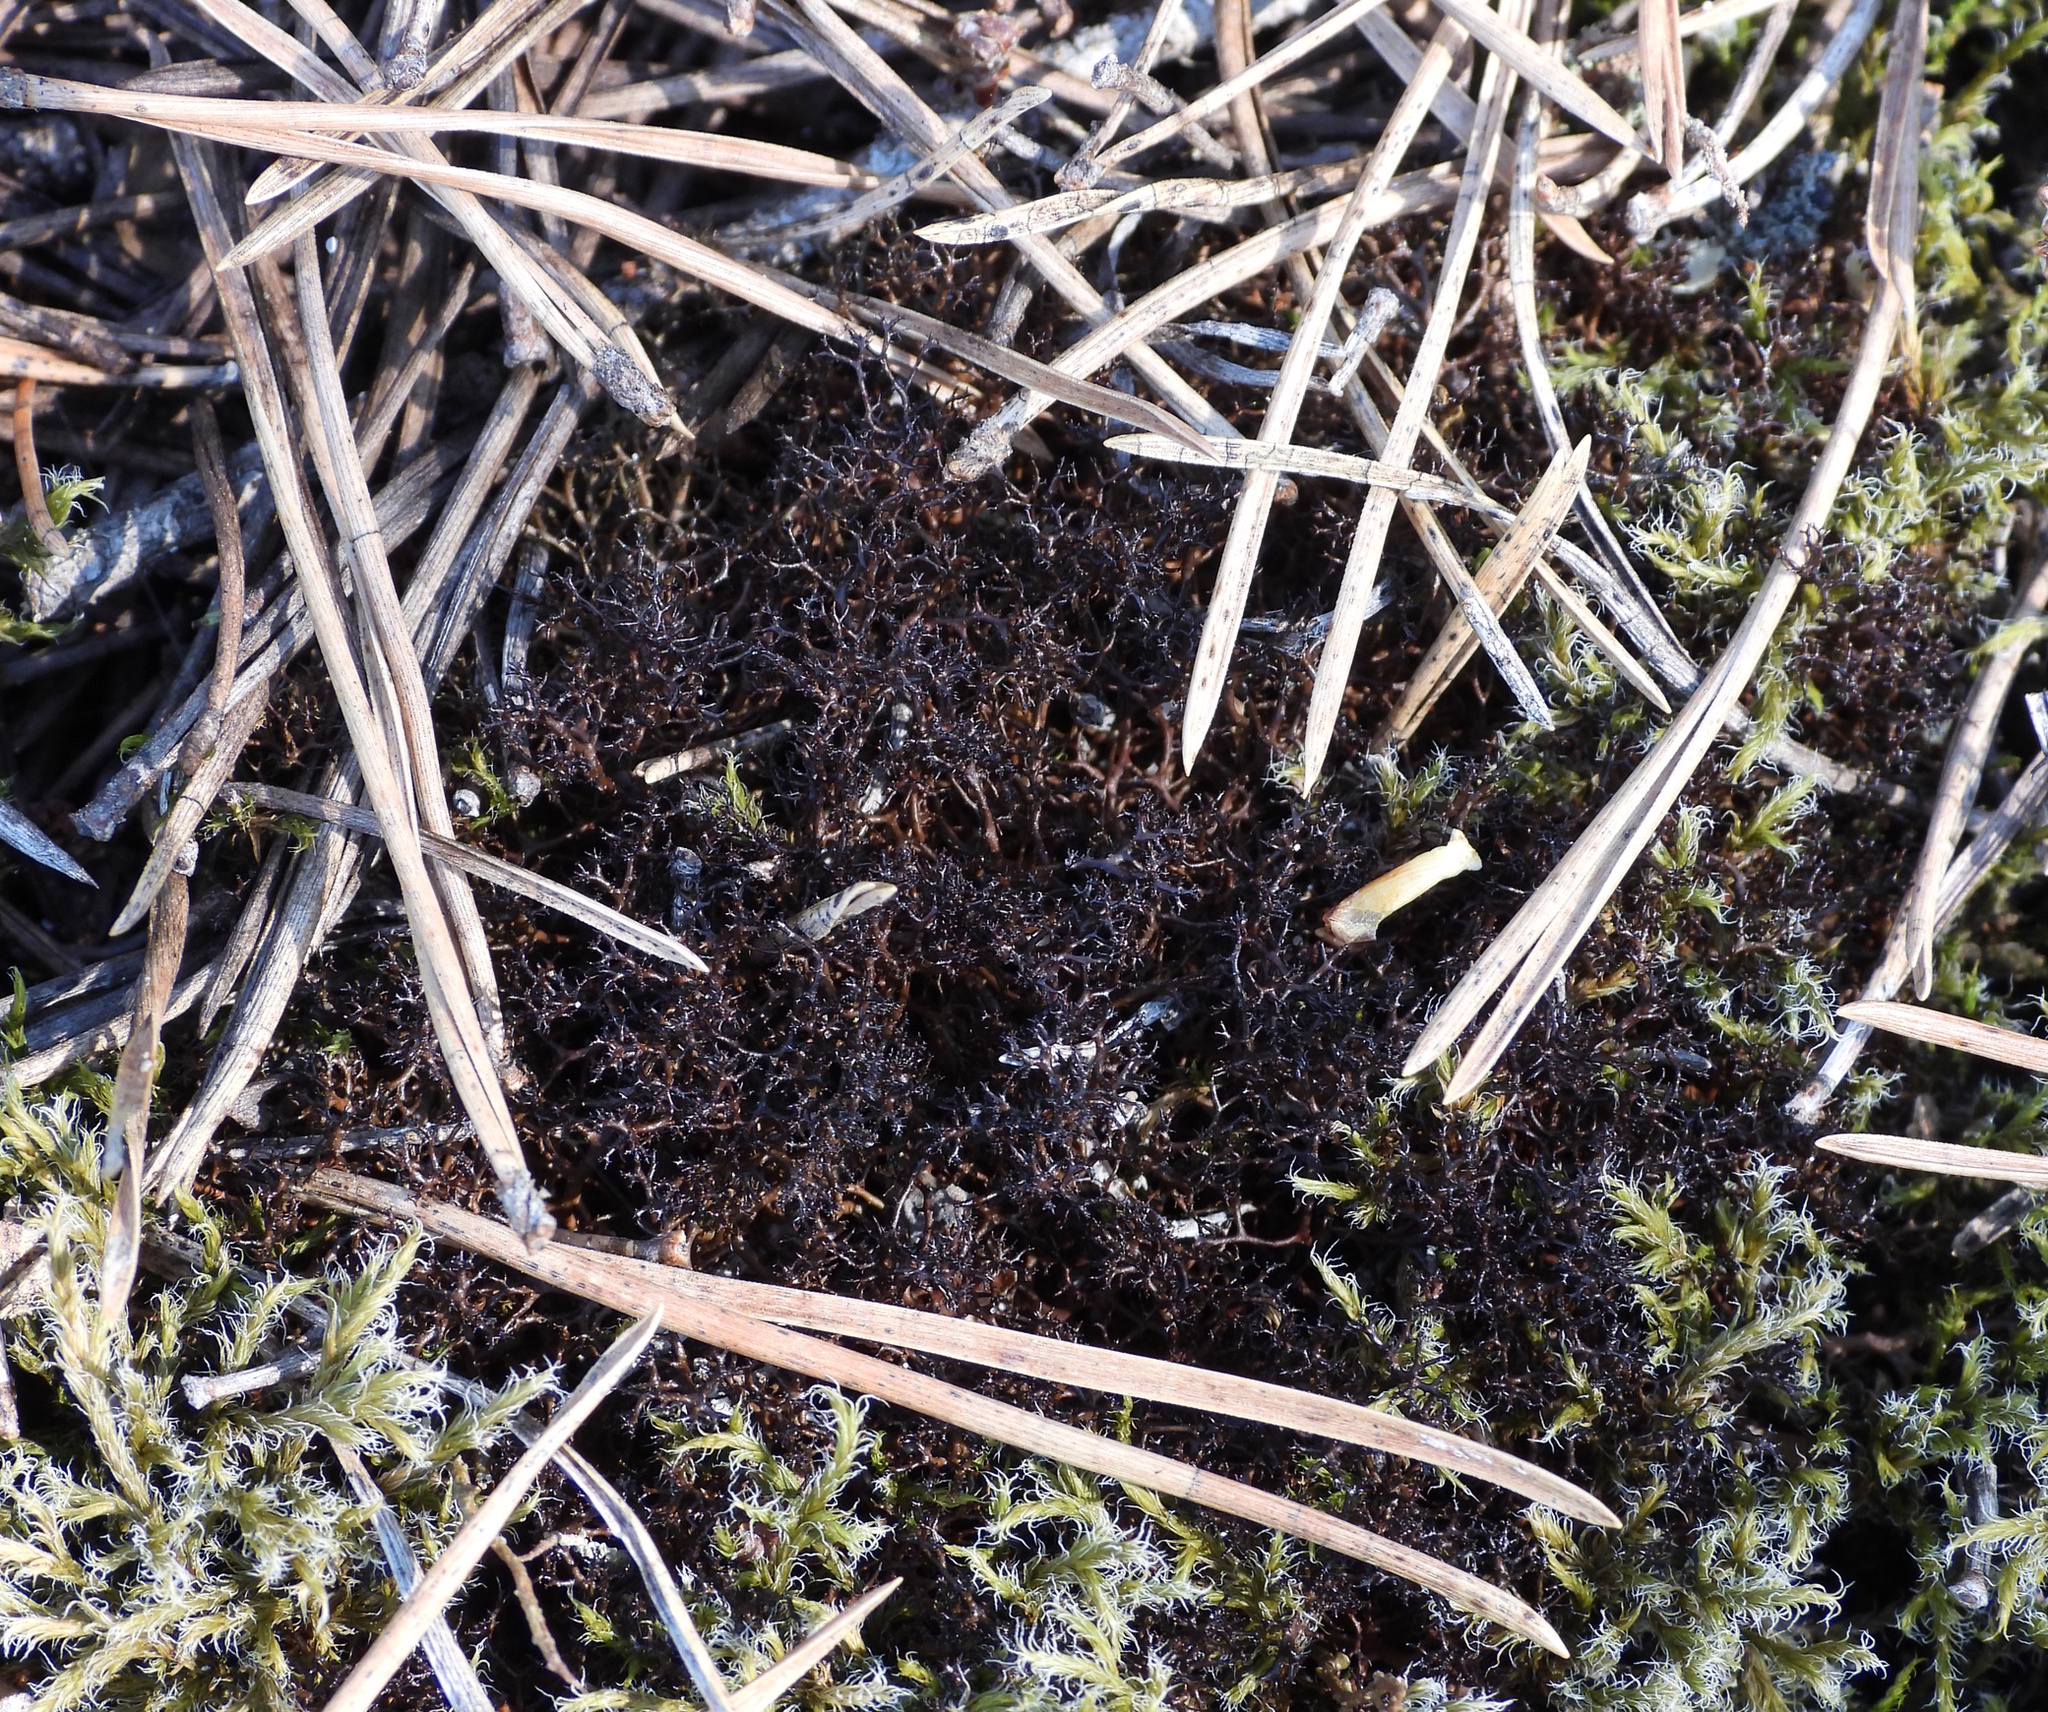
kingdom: Fungi
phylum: Ascomycota
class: Lecanoromycetes
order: Lecanorales
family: Parmeliaceae
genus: Cetraria
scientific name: Cetraria muricata
